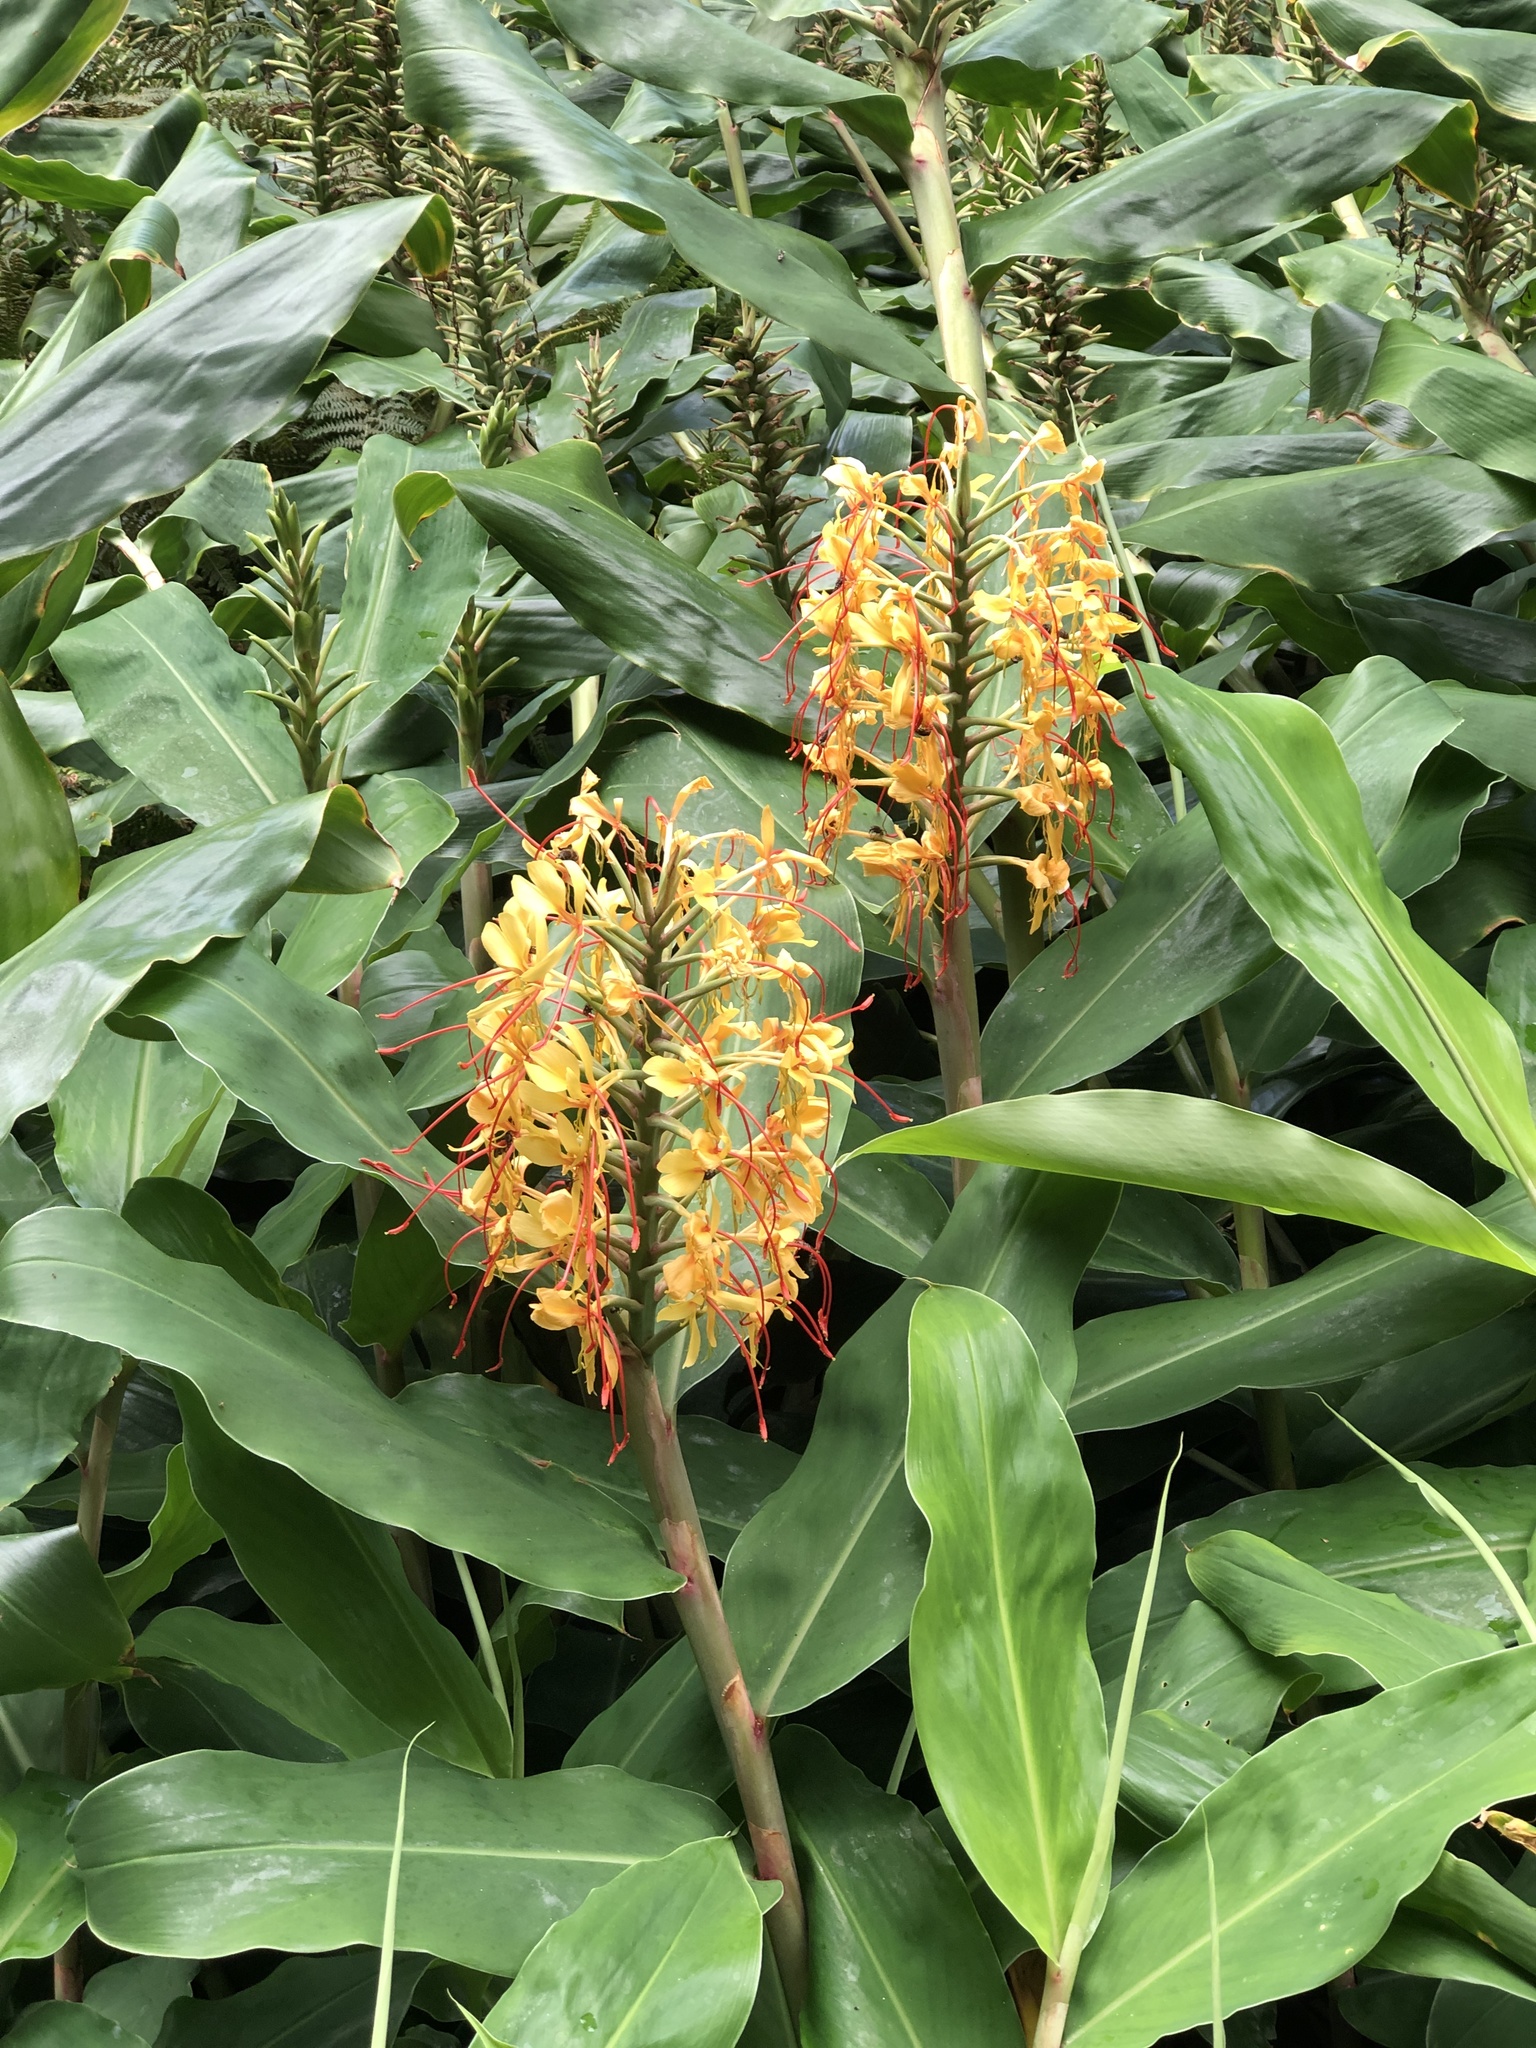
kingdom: Plantae
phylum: Tracheophyta
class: Liliopsida
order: Zingiberales
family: Zingiberaceae
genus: Hedychium
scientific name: Hedychium gardnerianum
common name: Himalayan ginger
